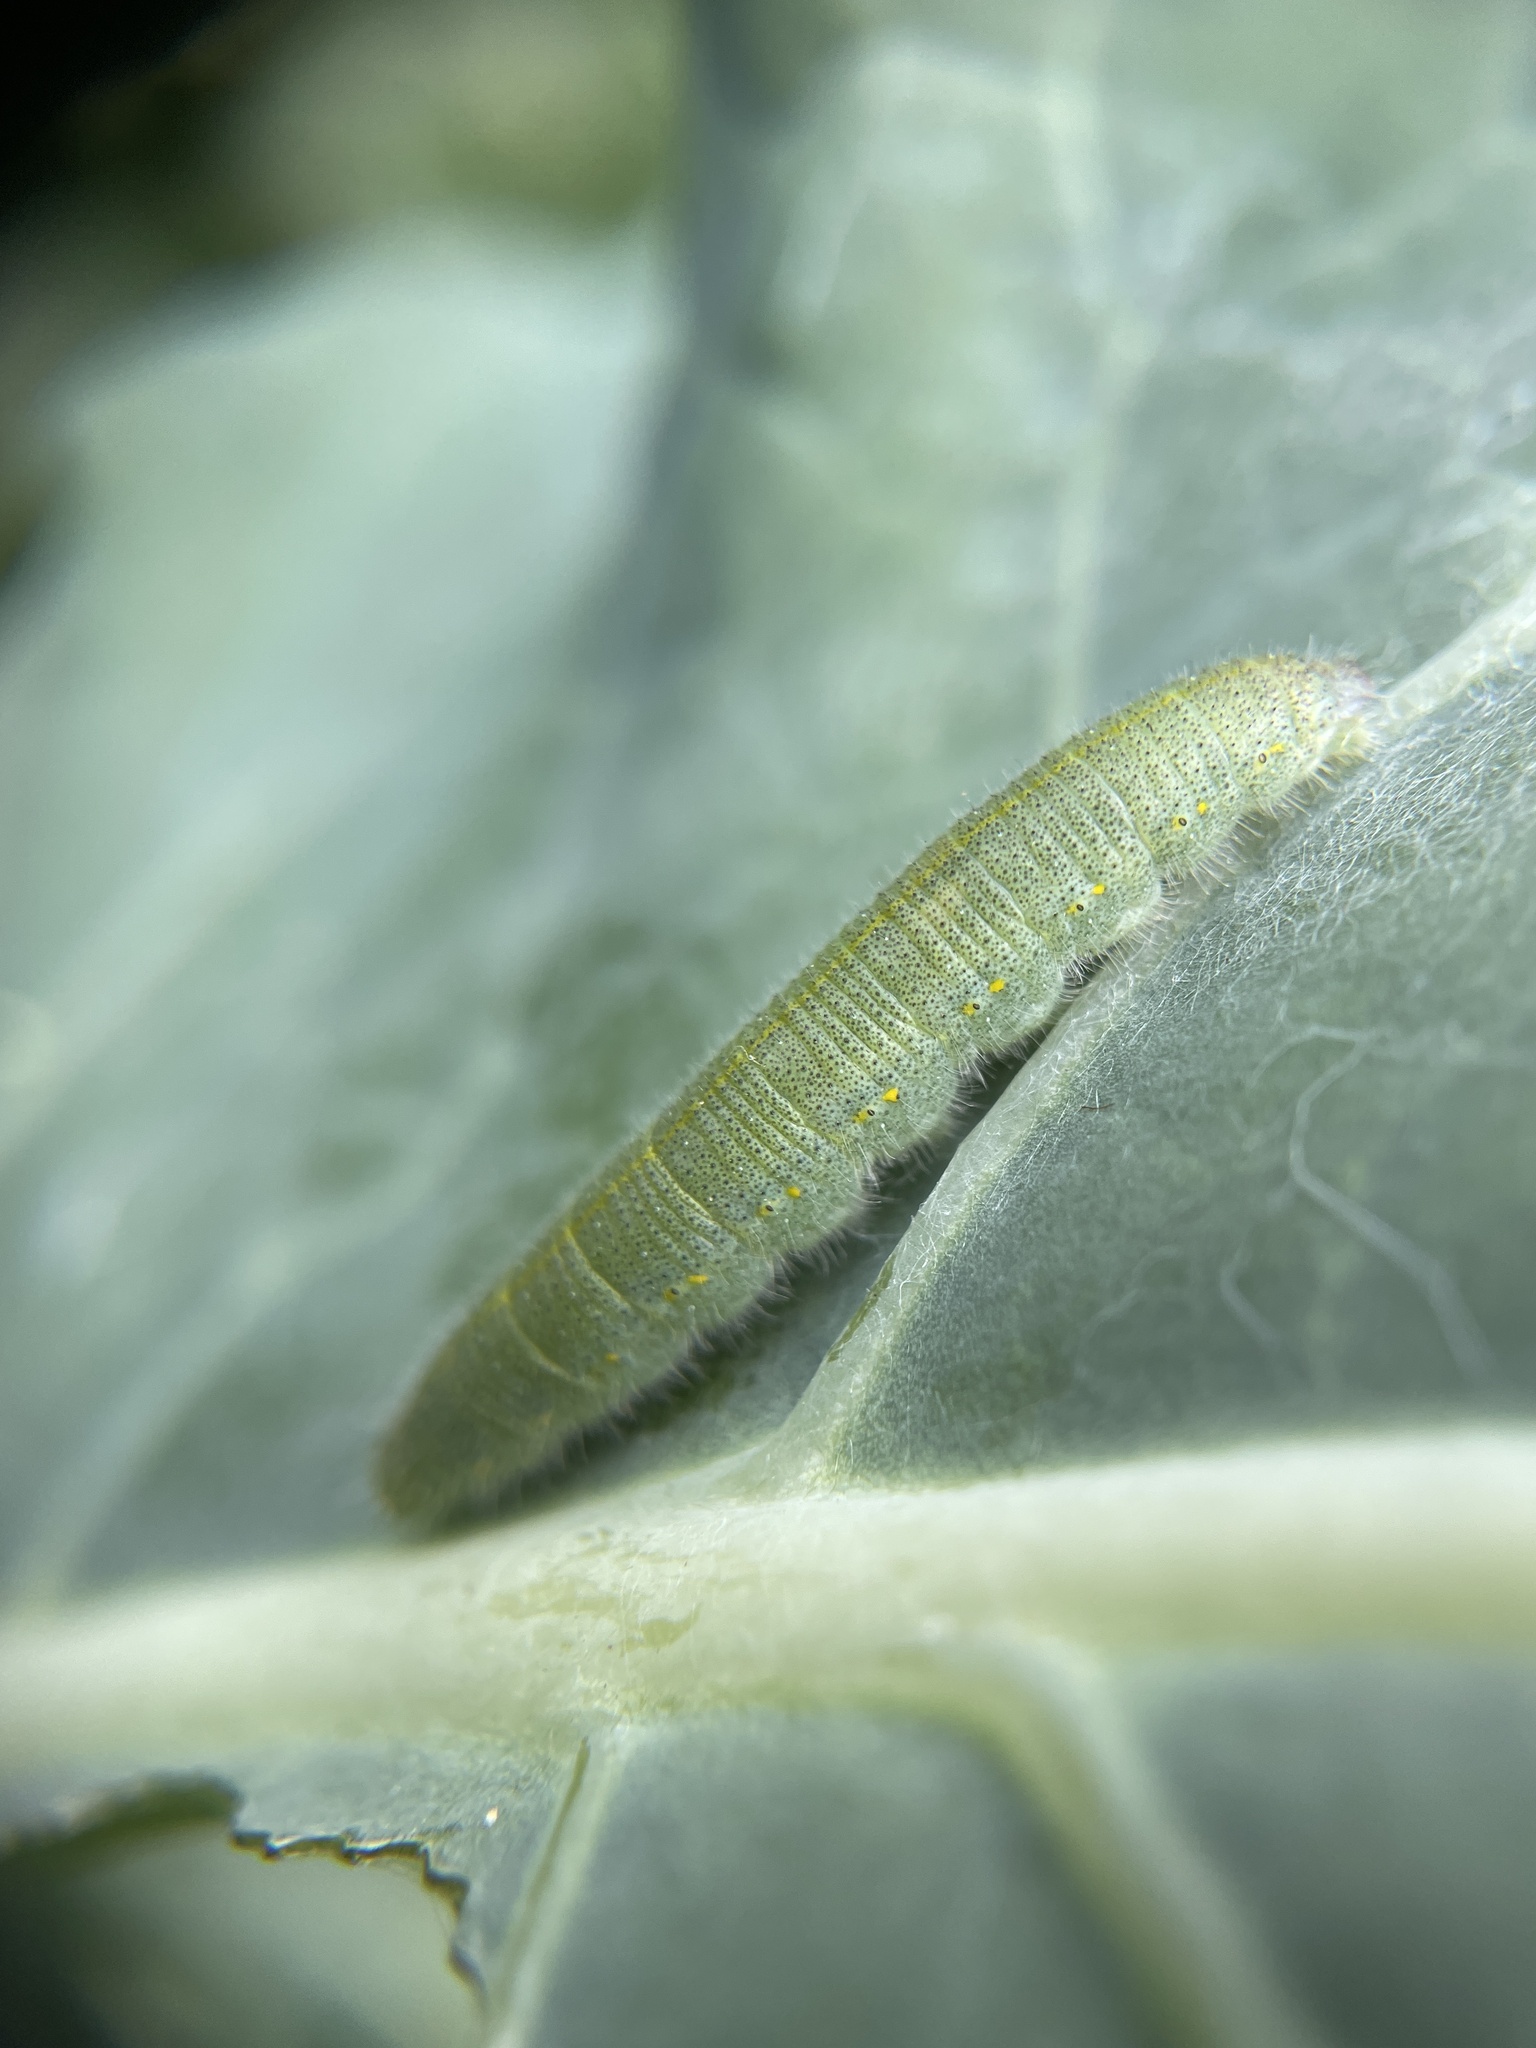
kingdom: Animalia
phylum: Arthropoda
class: Insecta
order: Lepidoptera
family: Pieridae
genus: Pieris
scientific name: Pieris rapae
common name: Small white
